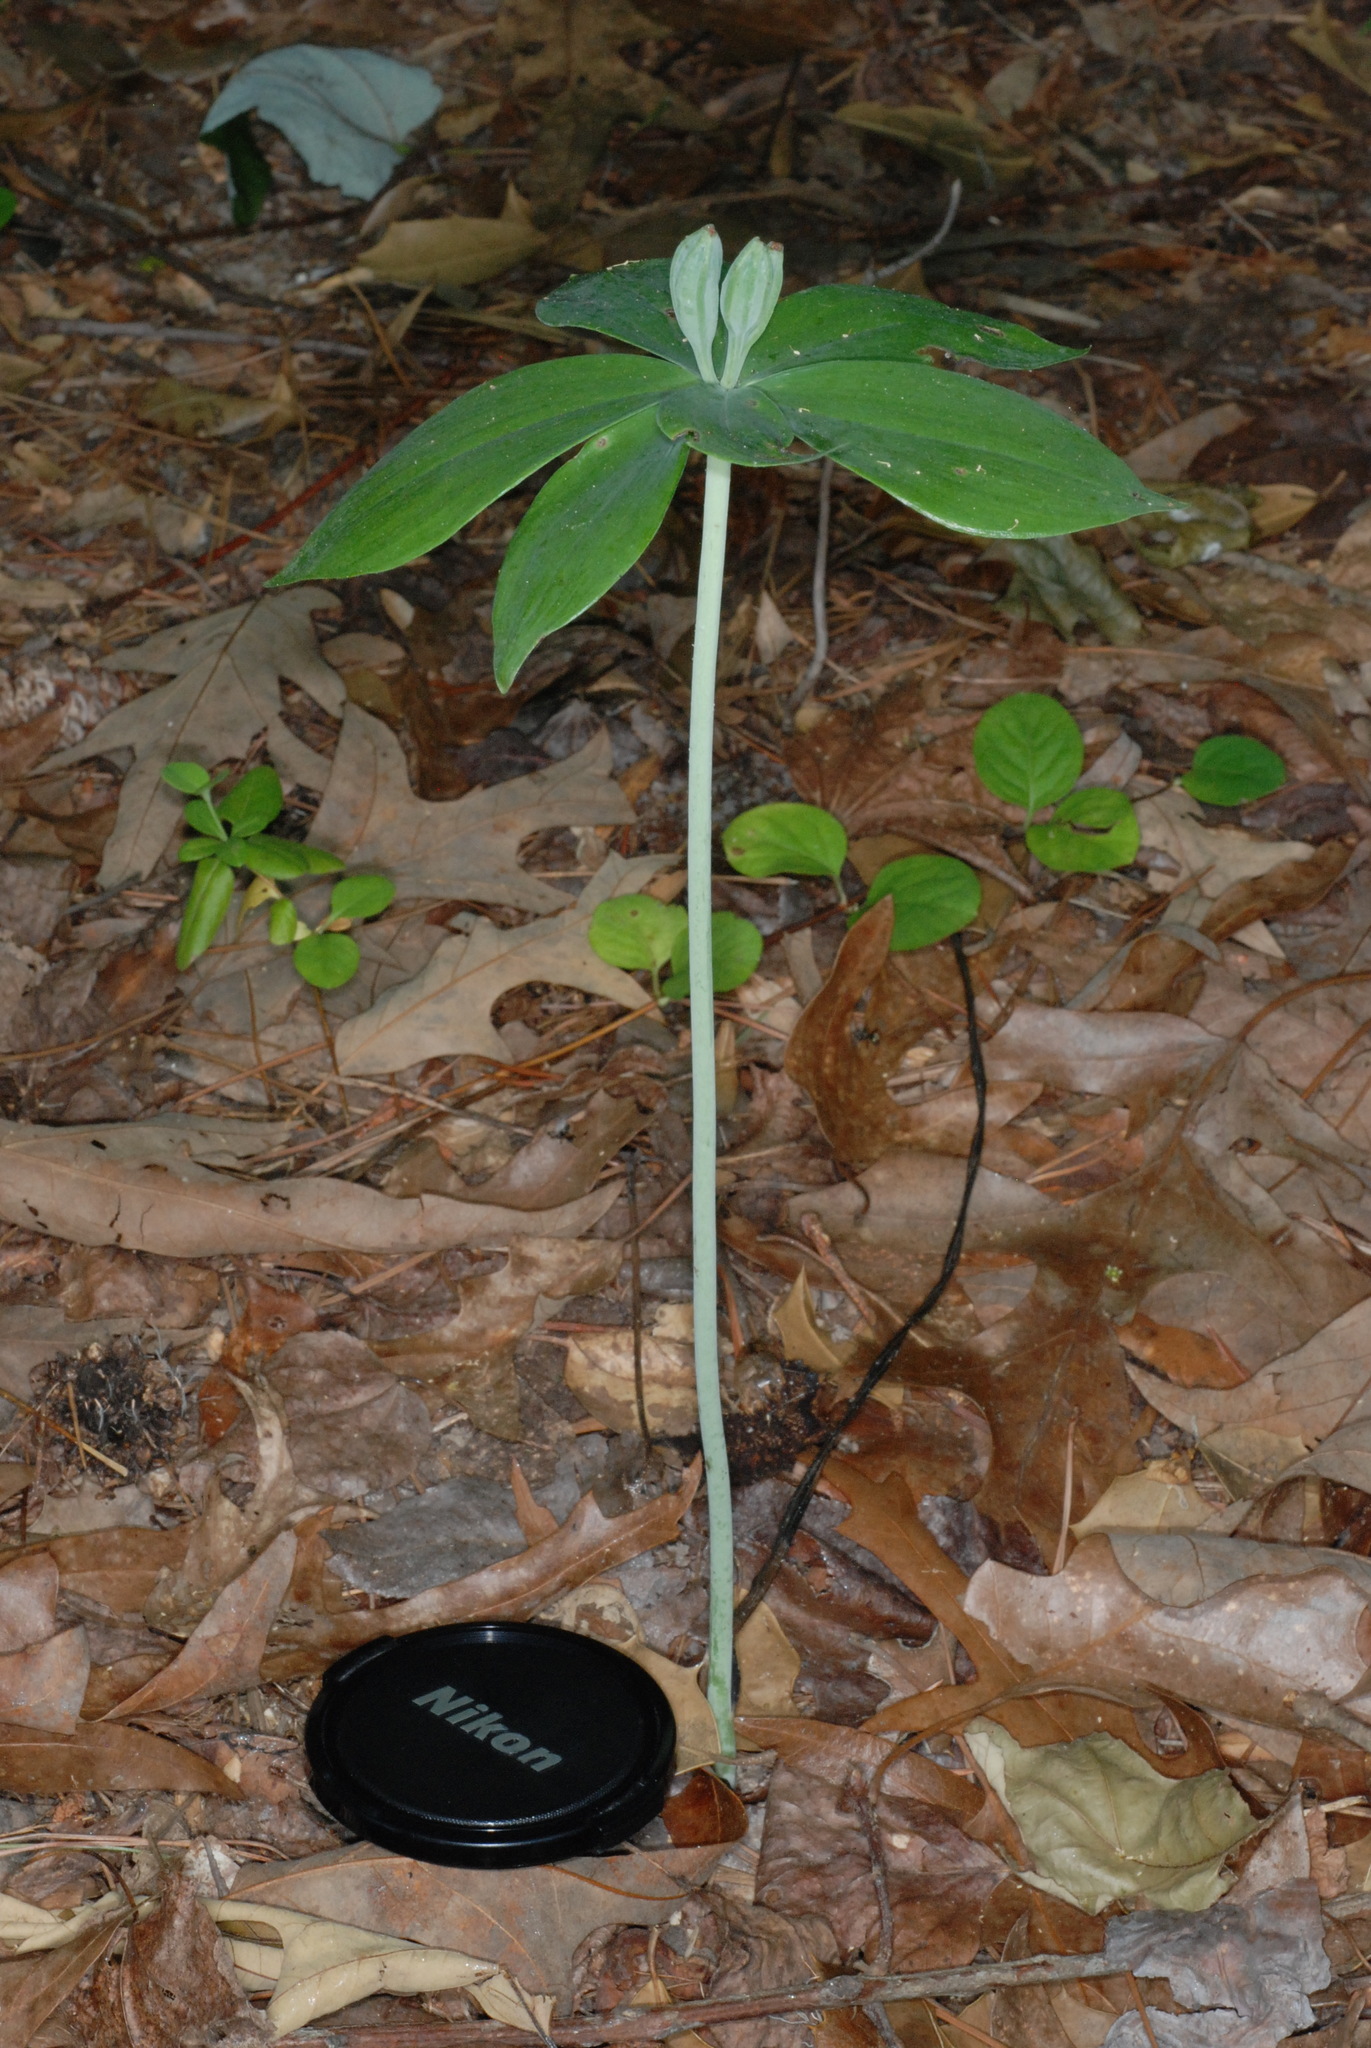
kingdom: Plantae
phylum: Tracheophyta
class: Liliopsida
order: Asparagales
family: Orchidaceae
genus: Isotria
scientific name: Isotria medeoloides
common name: Small whorled pogonia
